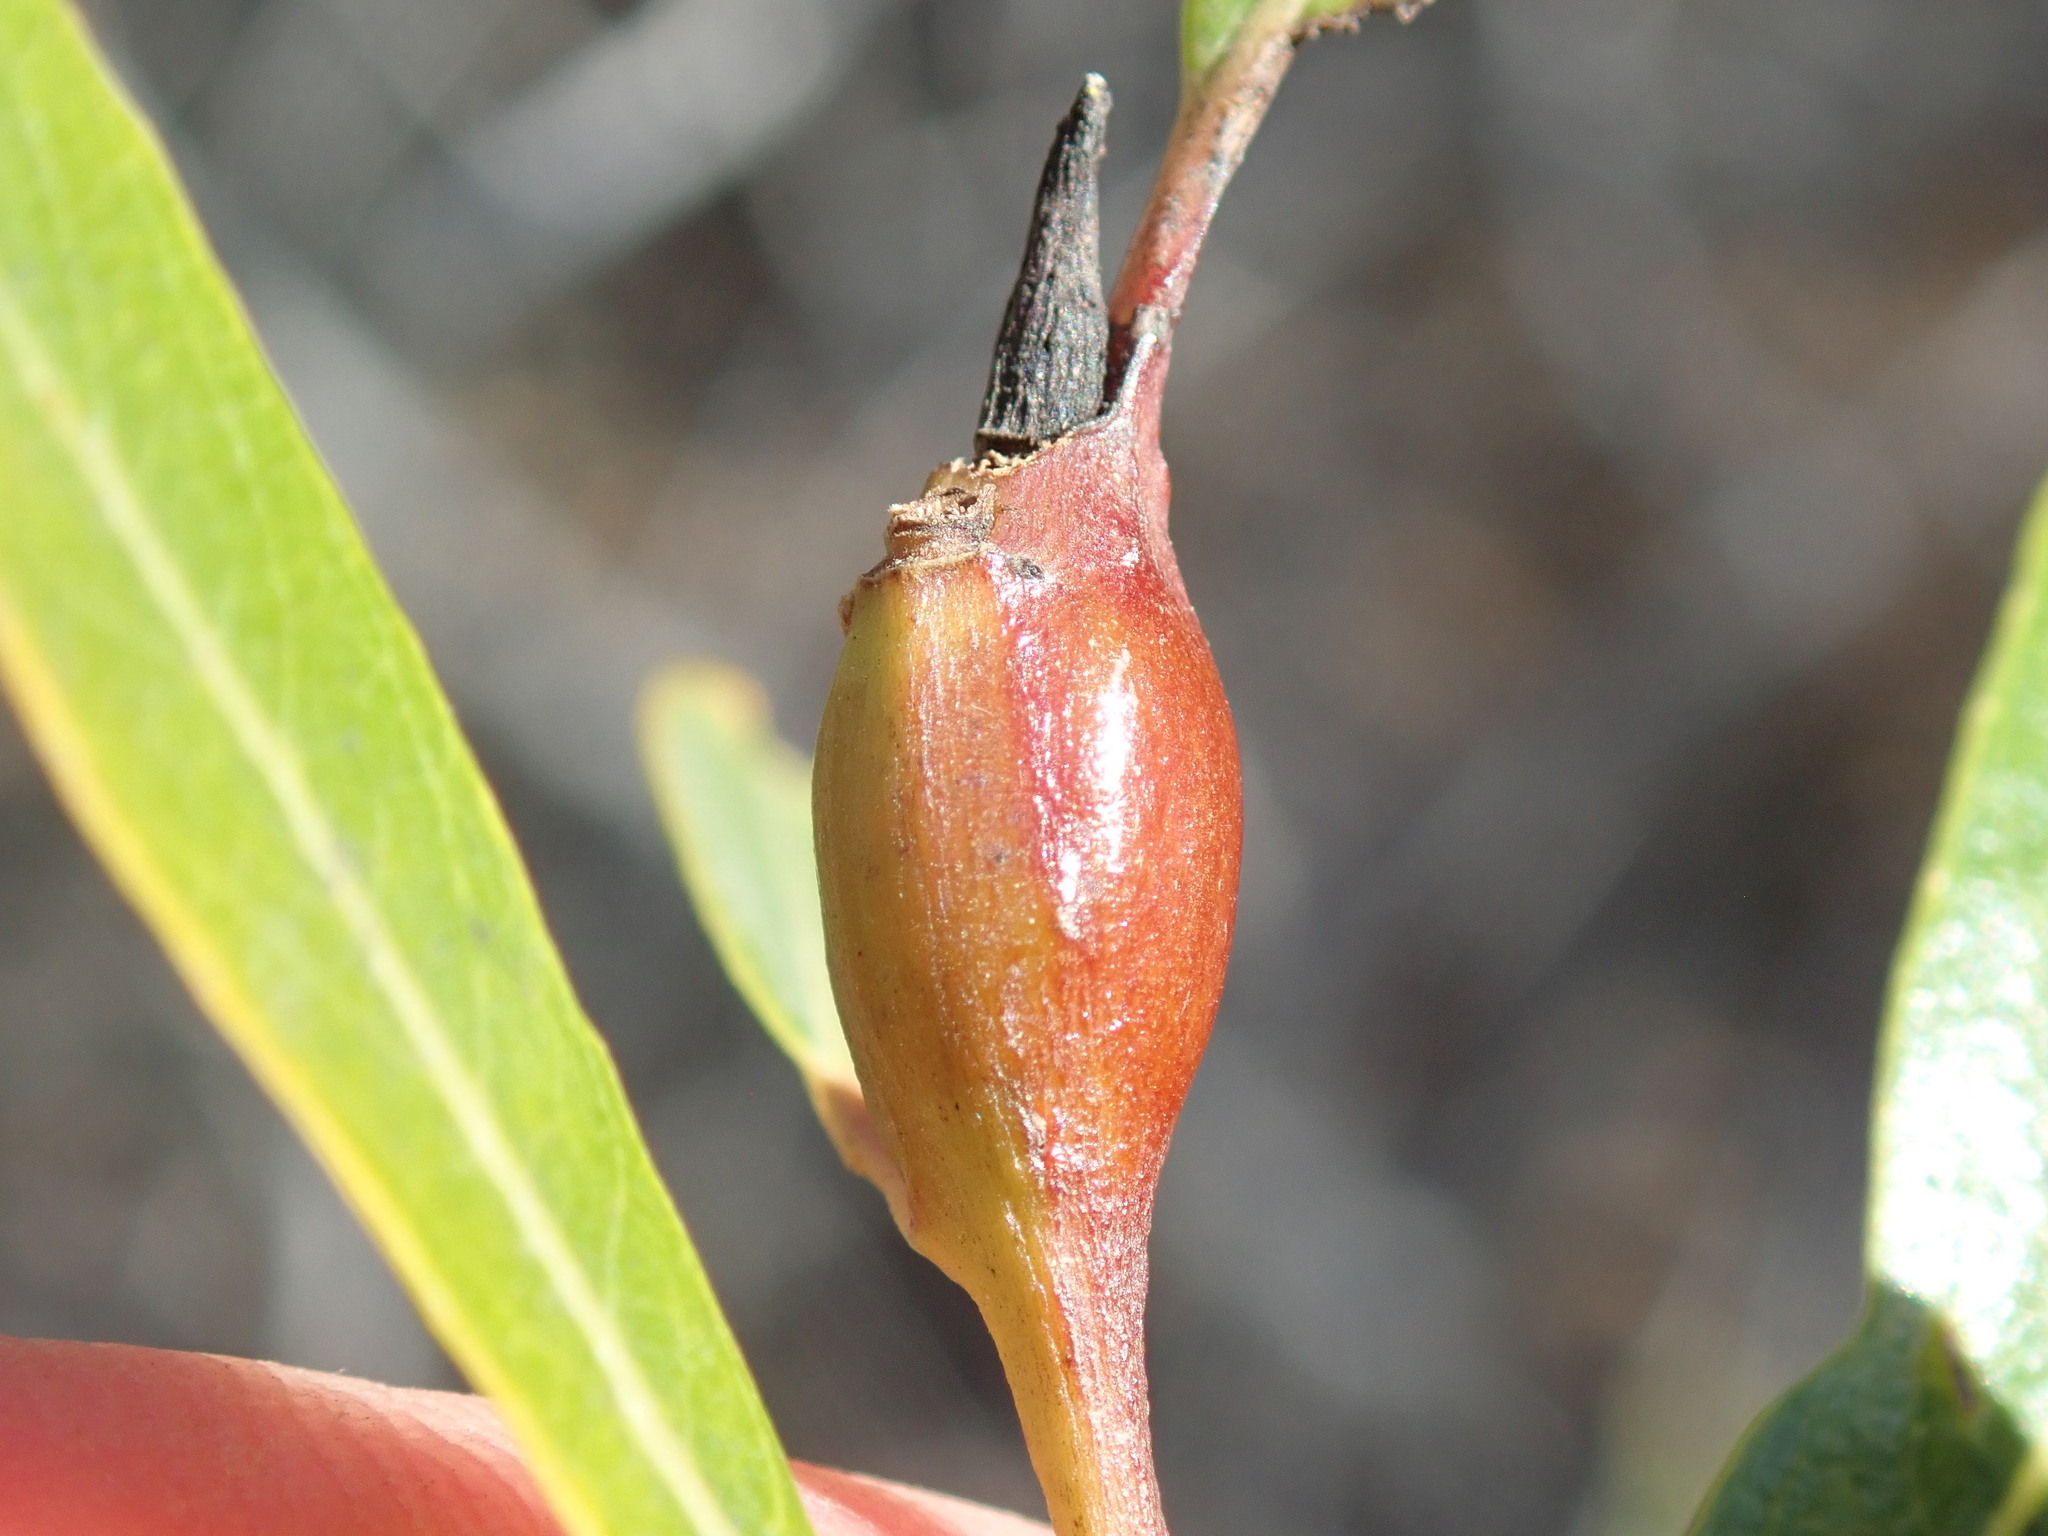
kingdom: Animalia
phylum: Arthropoda
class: Insecta
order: Diptera
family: Cecidomyiidae
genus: Thecodiplosis
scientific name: Thecodiplosis pinirigidae
